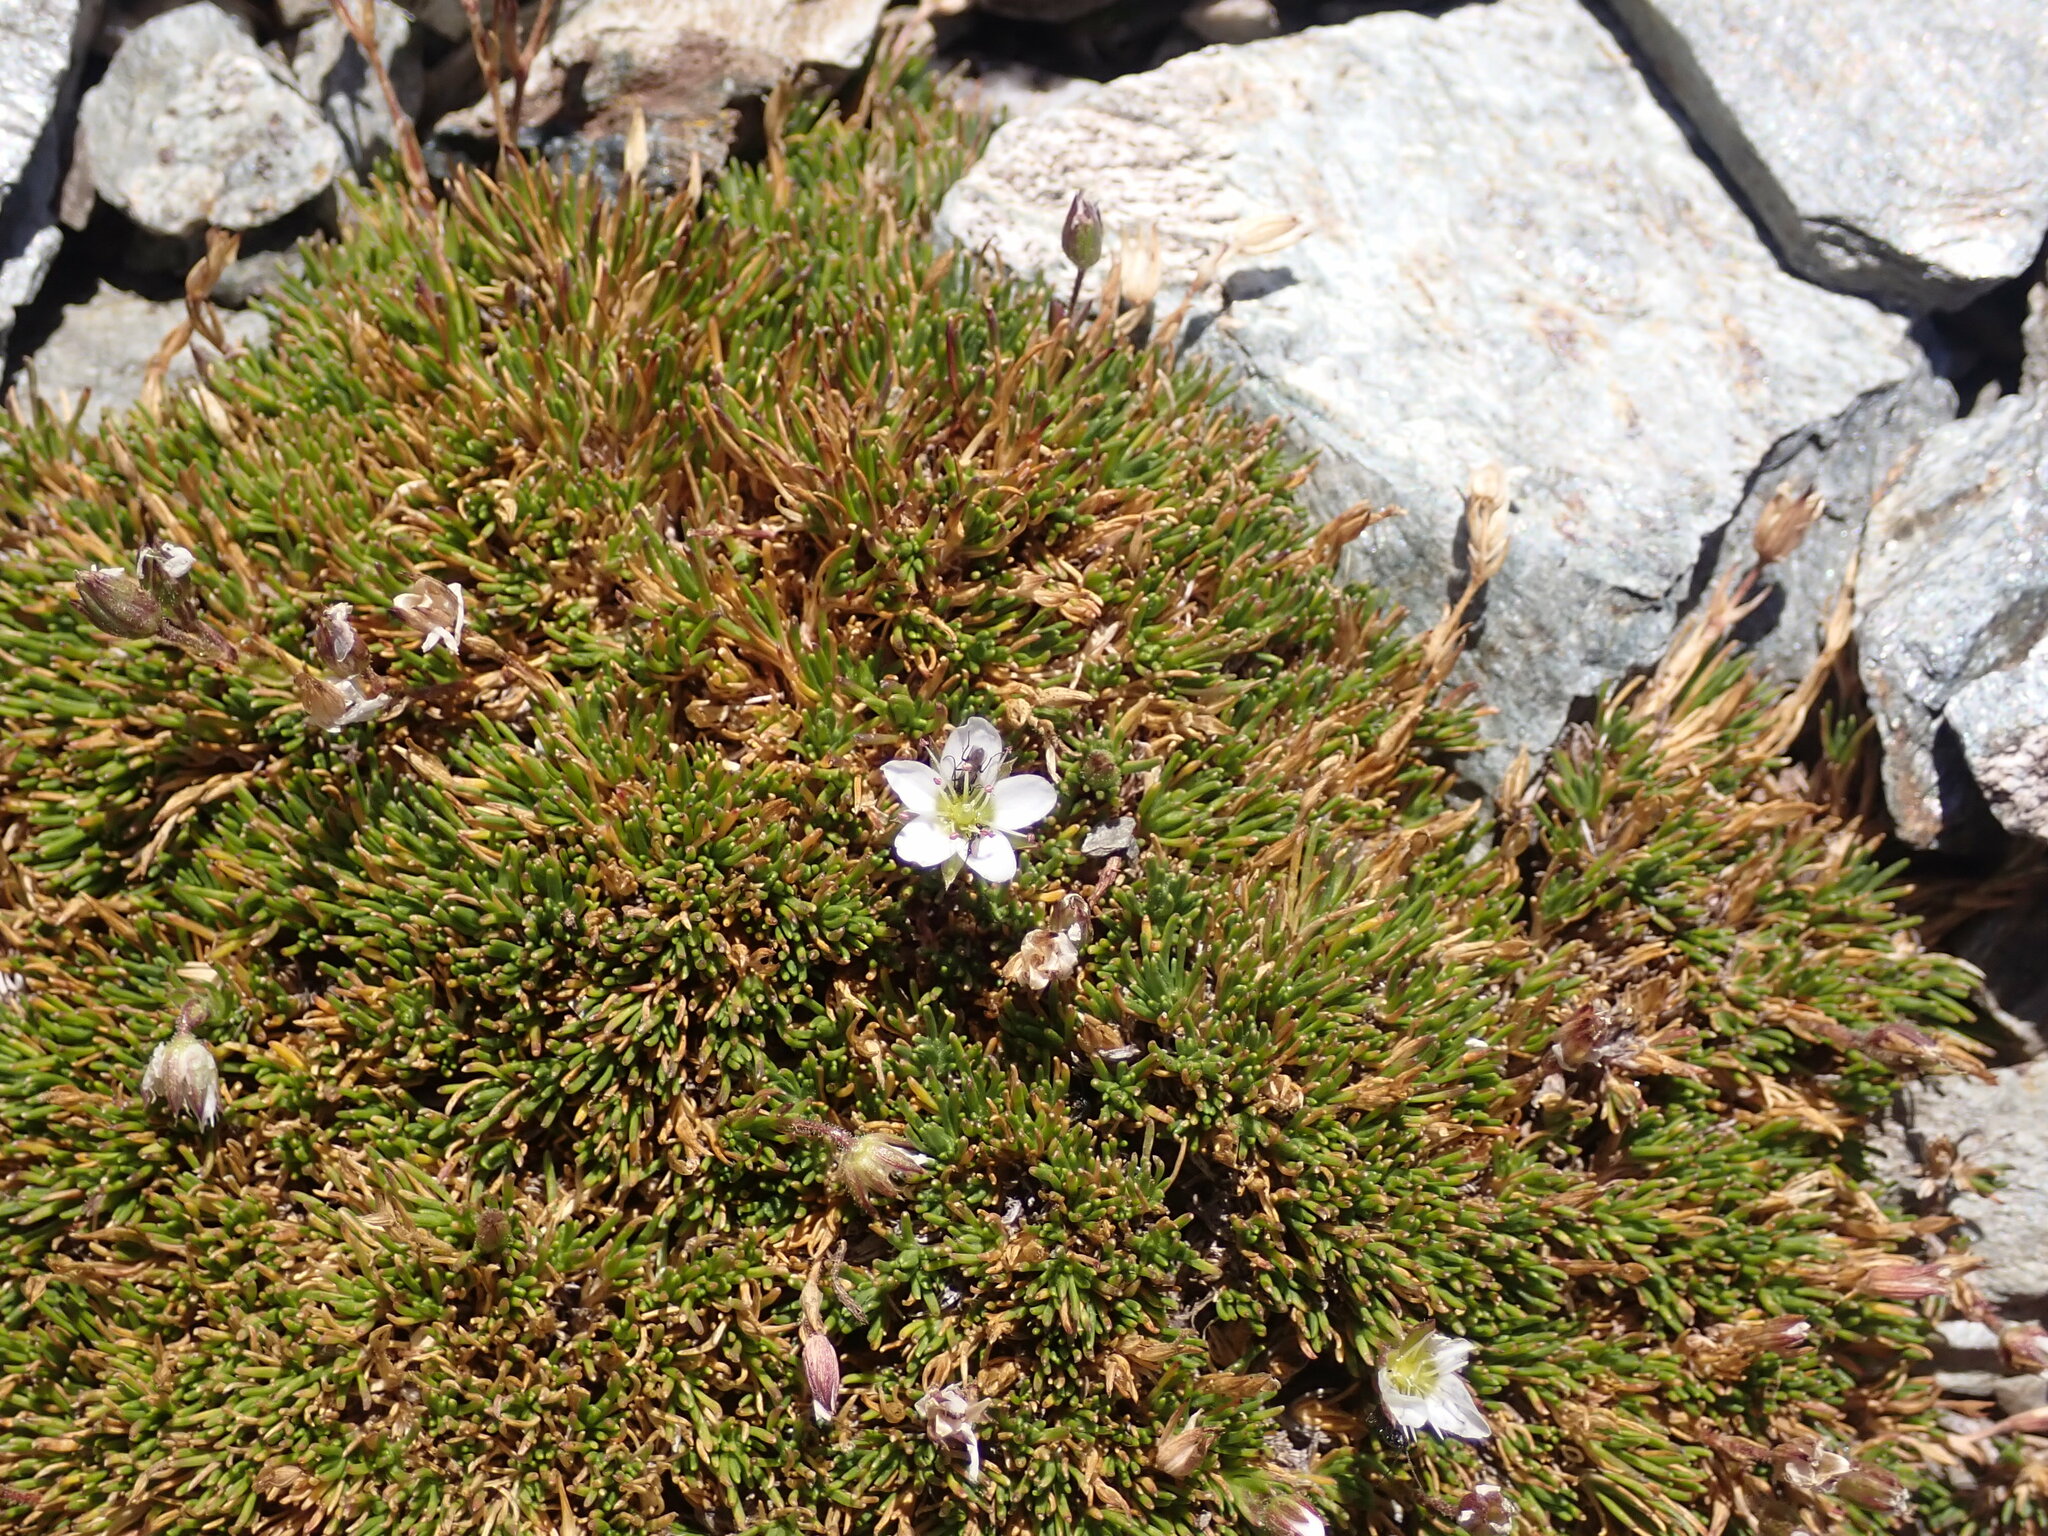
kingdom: Plantae
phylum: Tracheophyta
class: Magnoliopsida
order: Caryophyllales
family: Caryophyllaceae
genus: Minuartia
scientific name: Minuartia recurva
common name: Recurved sandwort
